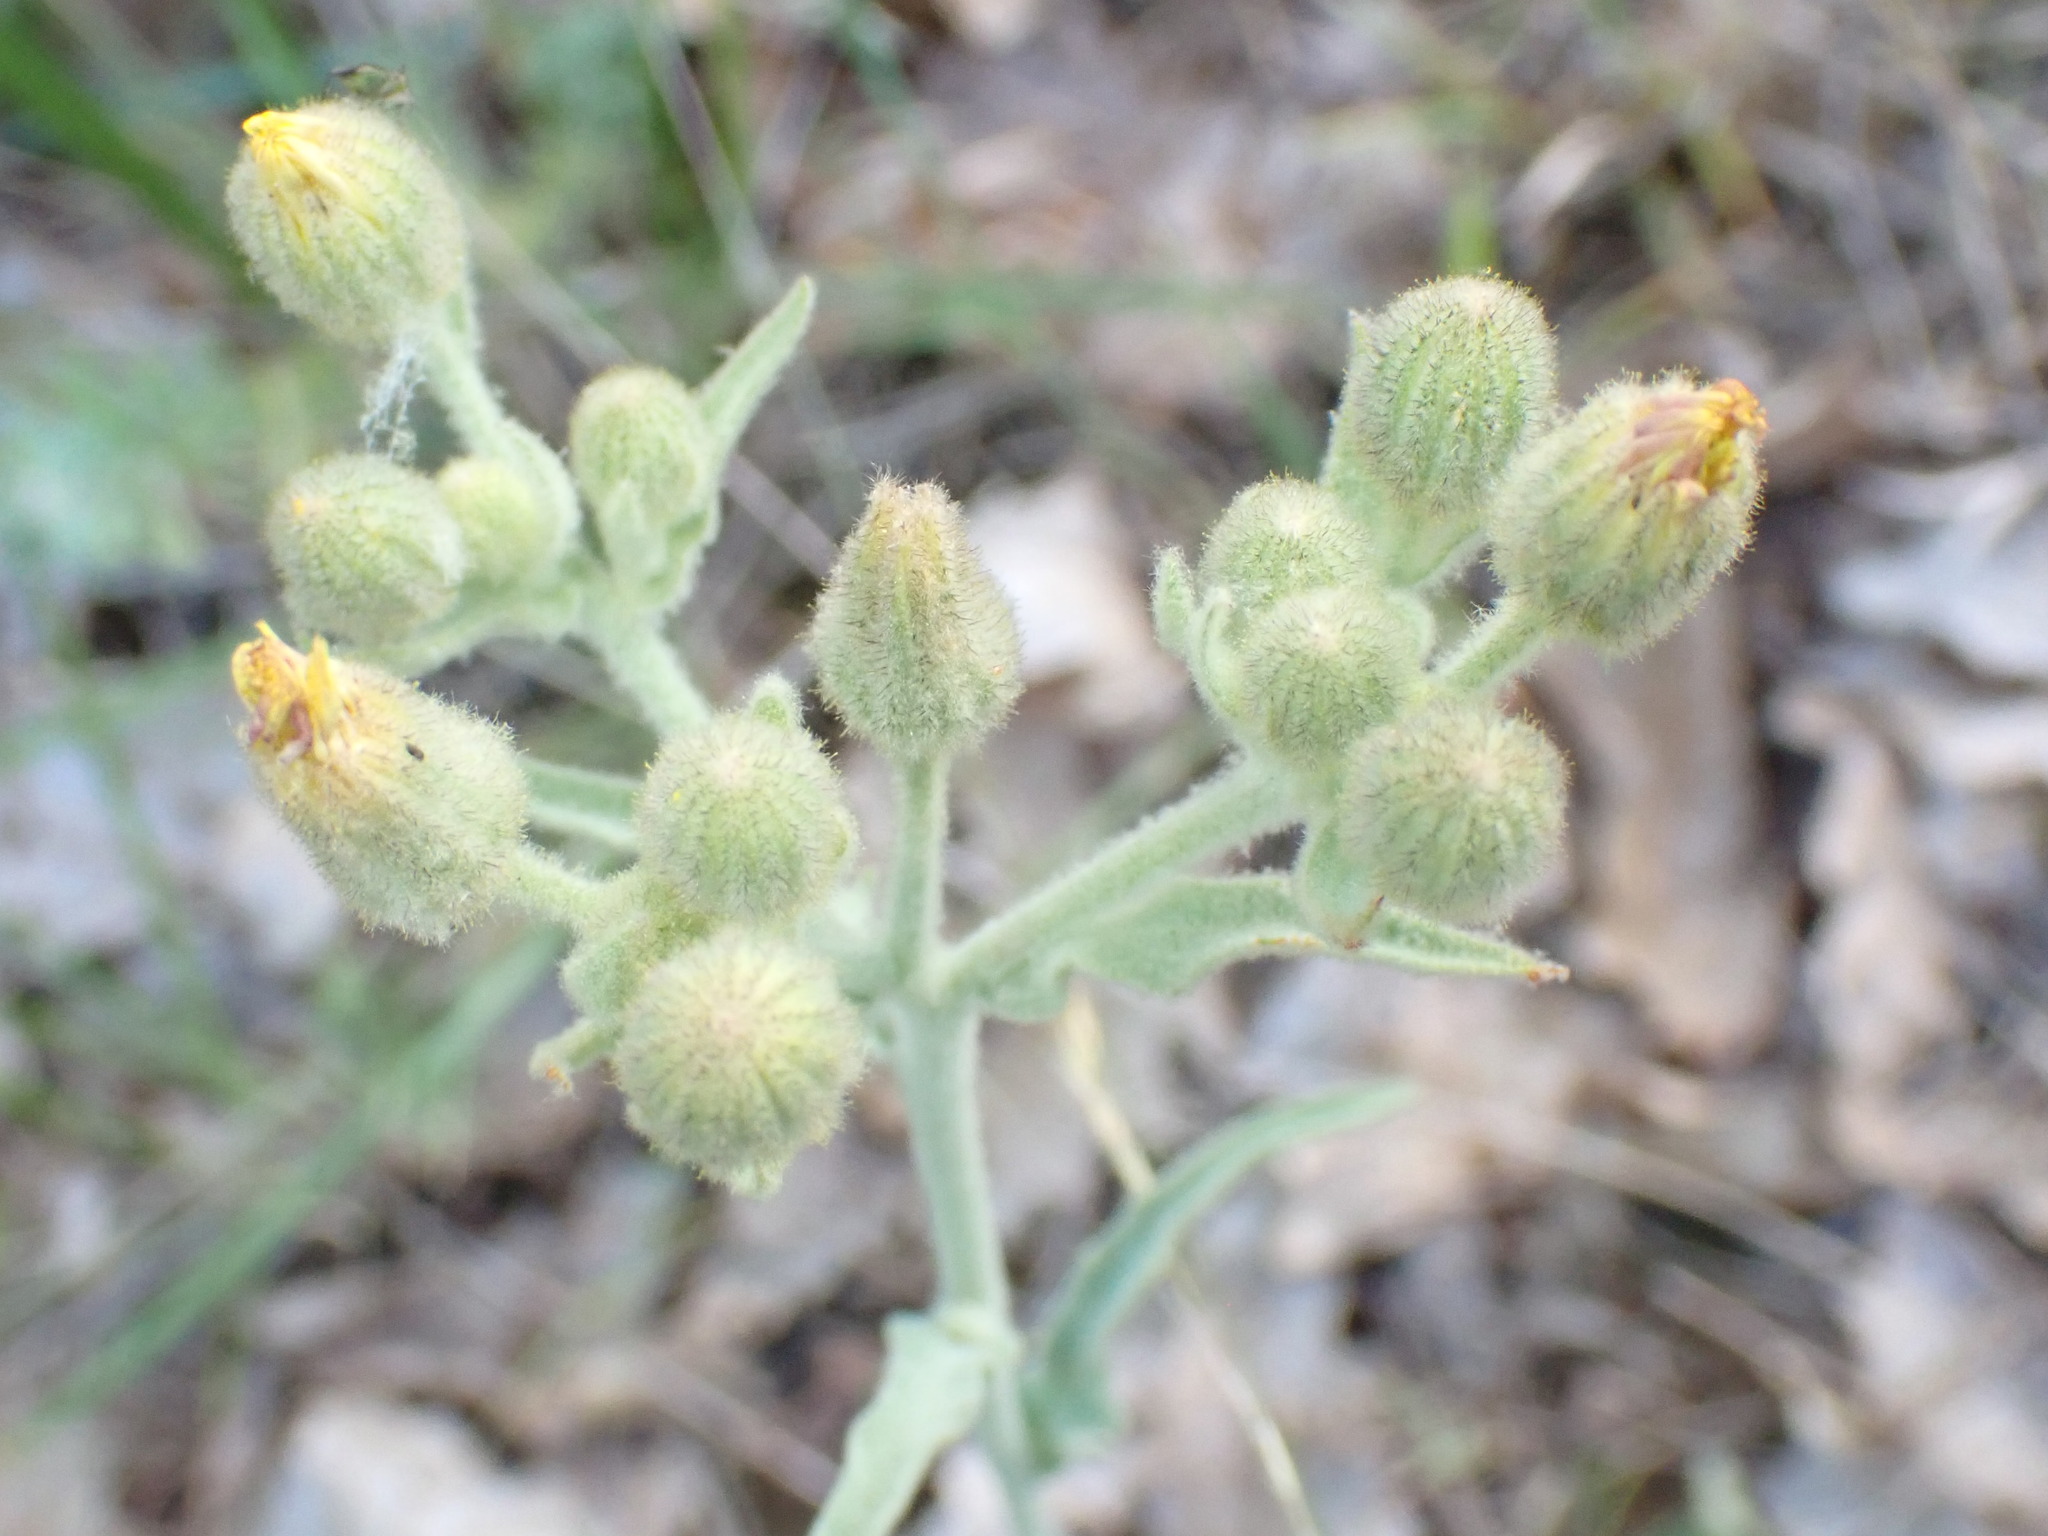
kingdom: Plantae
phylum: Tracheophyta
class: Magnoliopsida
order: Asterales
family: Asteraceae
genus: Andryala
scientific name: Andryala integrifolia
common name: Common andryala
